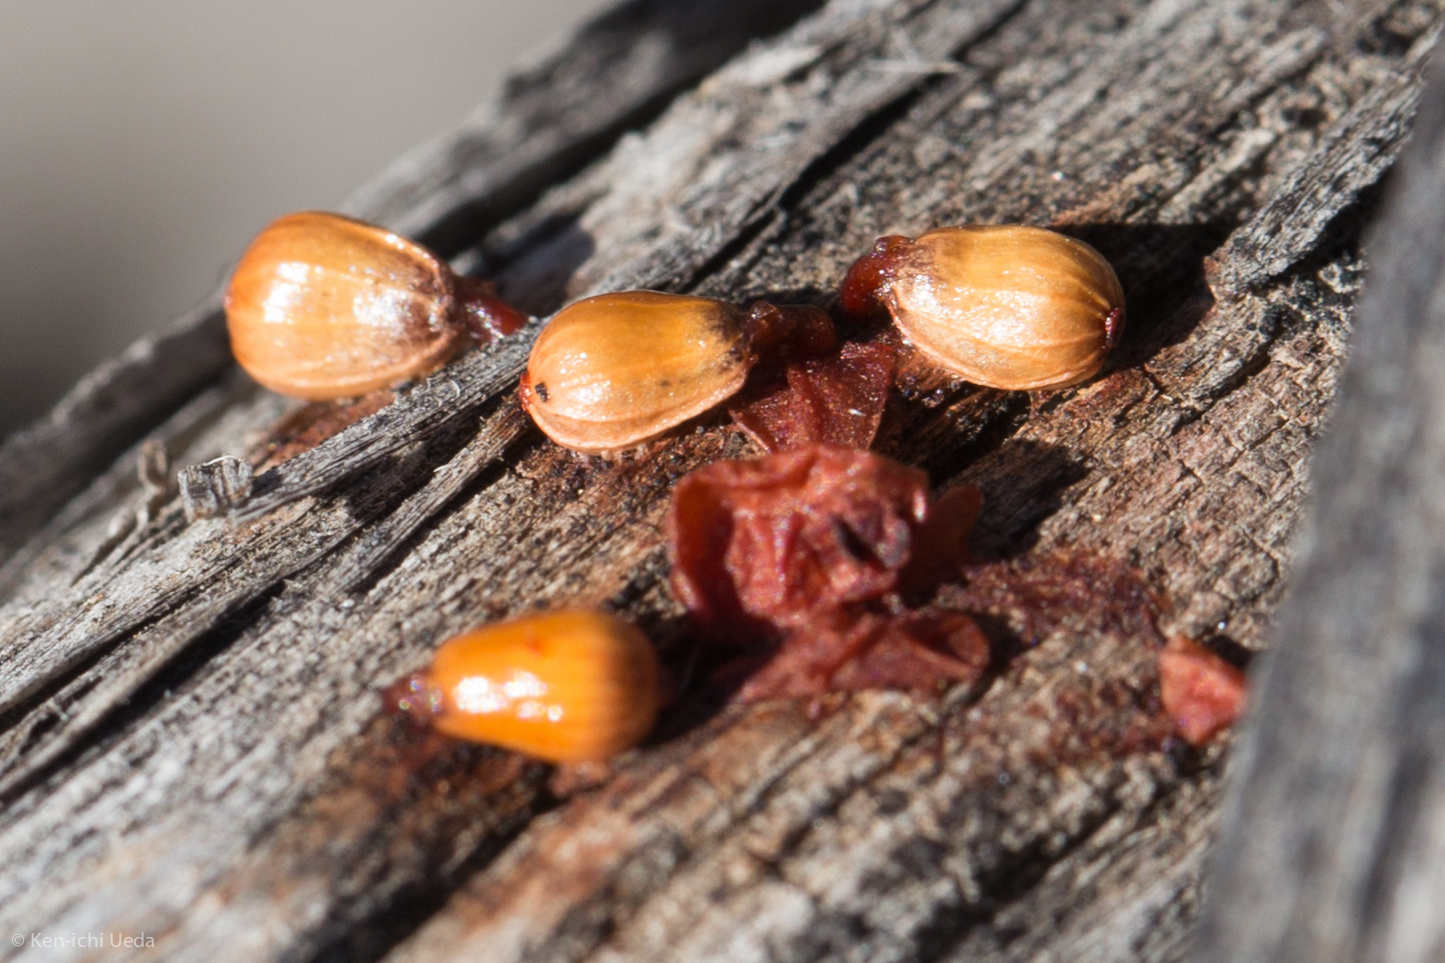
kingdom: Plantae
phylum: Tracheophyta
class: Magnoliopsida
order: Santalales
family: Viscaceae
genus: Phoradendron
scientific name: Phoradendron californicum
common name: Acacia mistletoe
